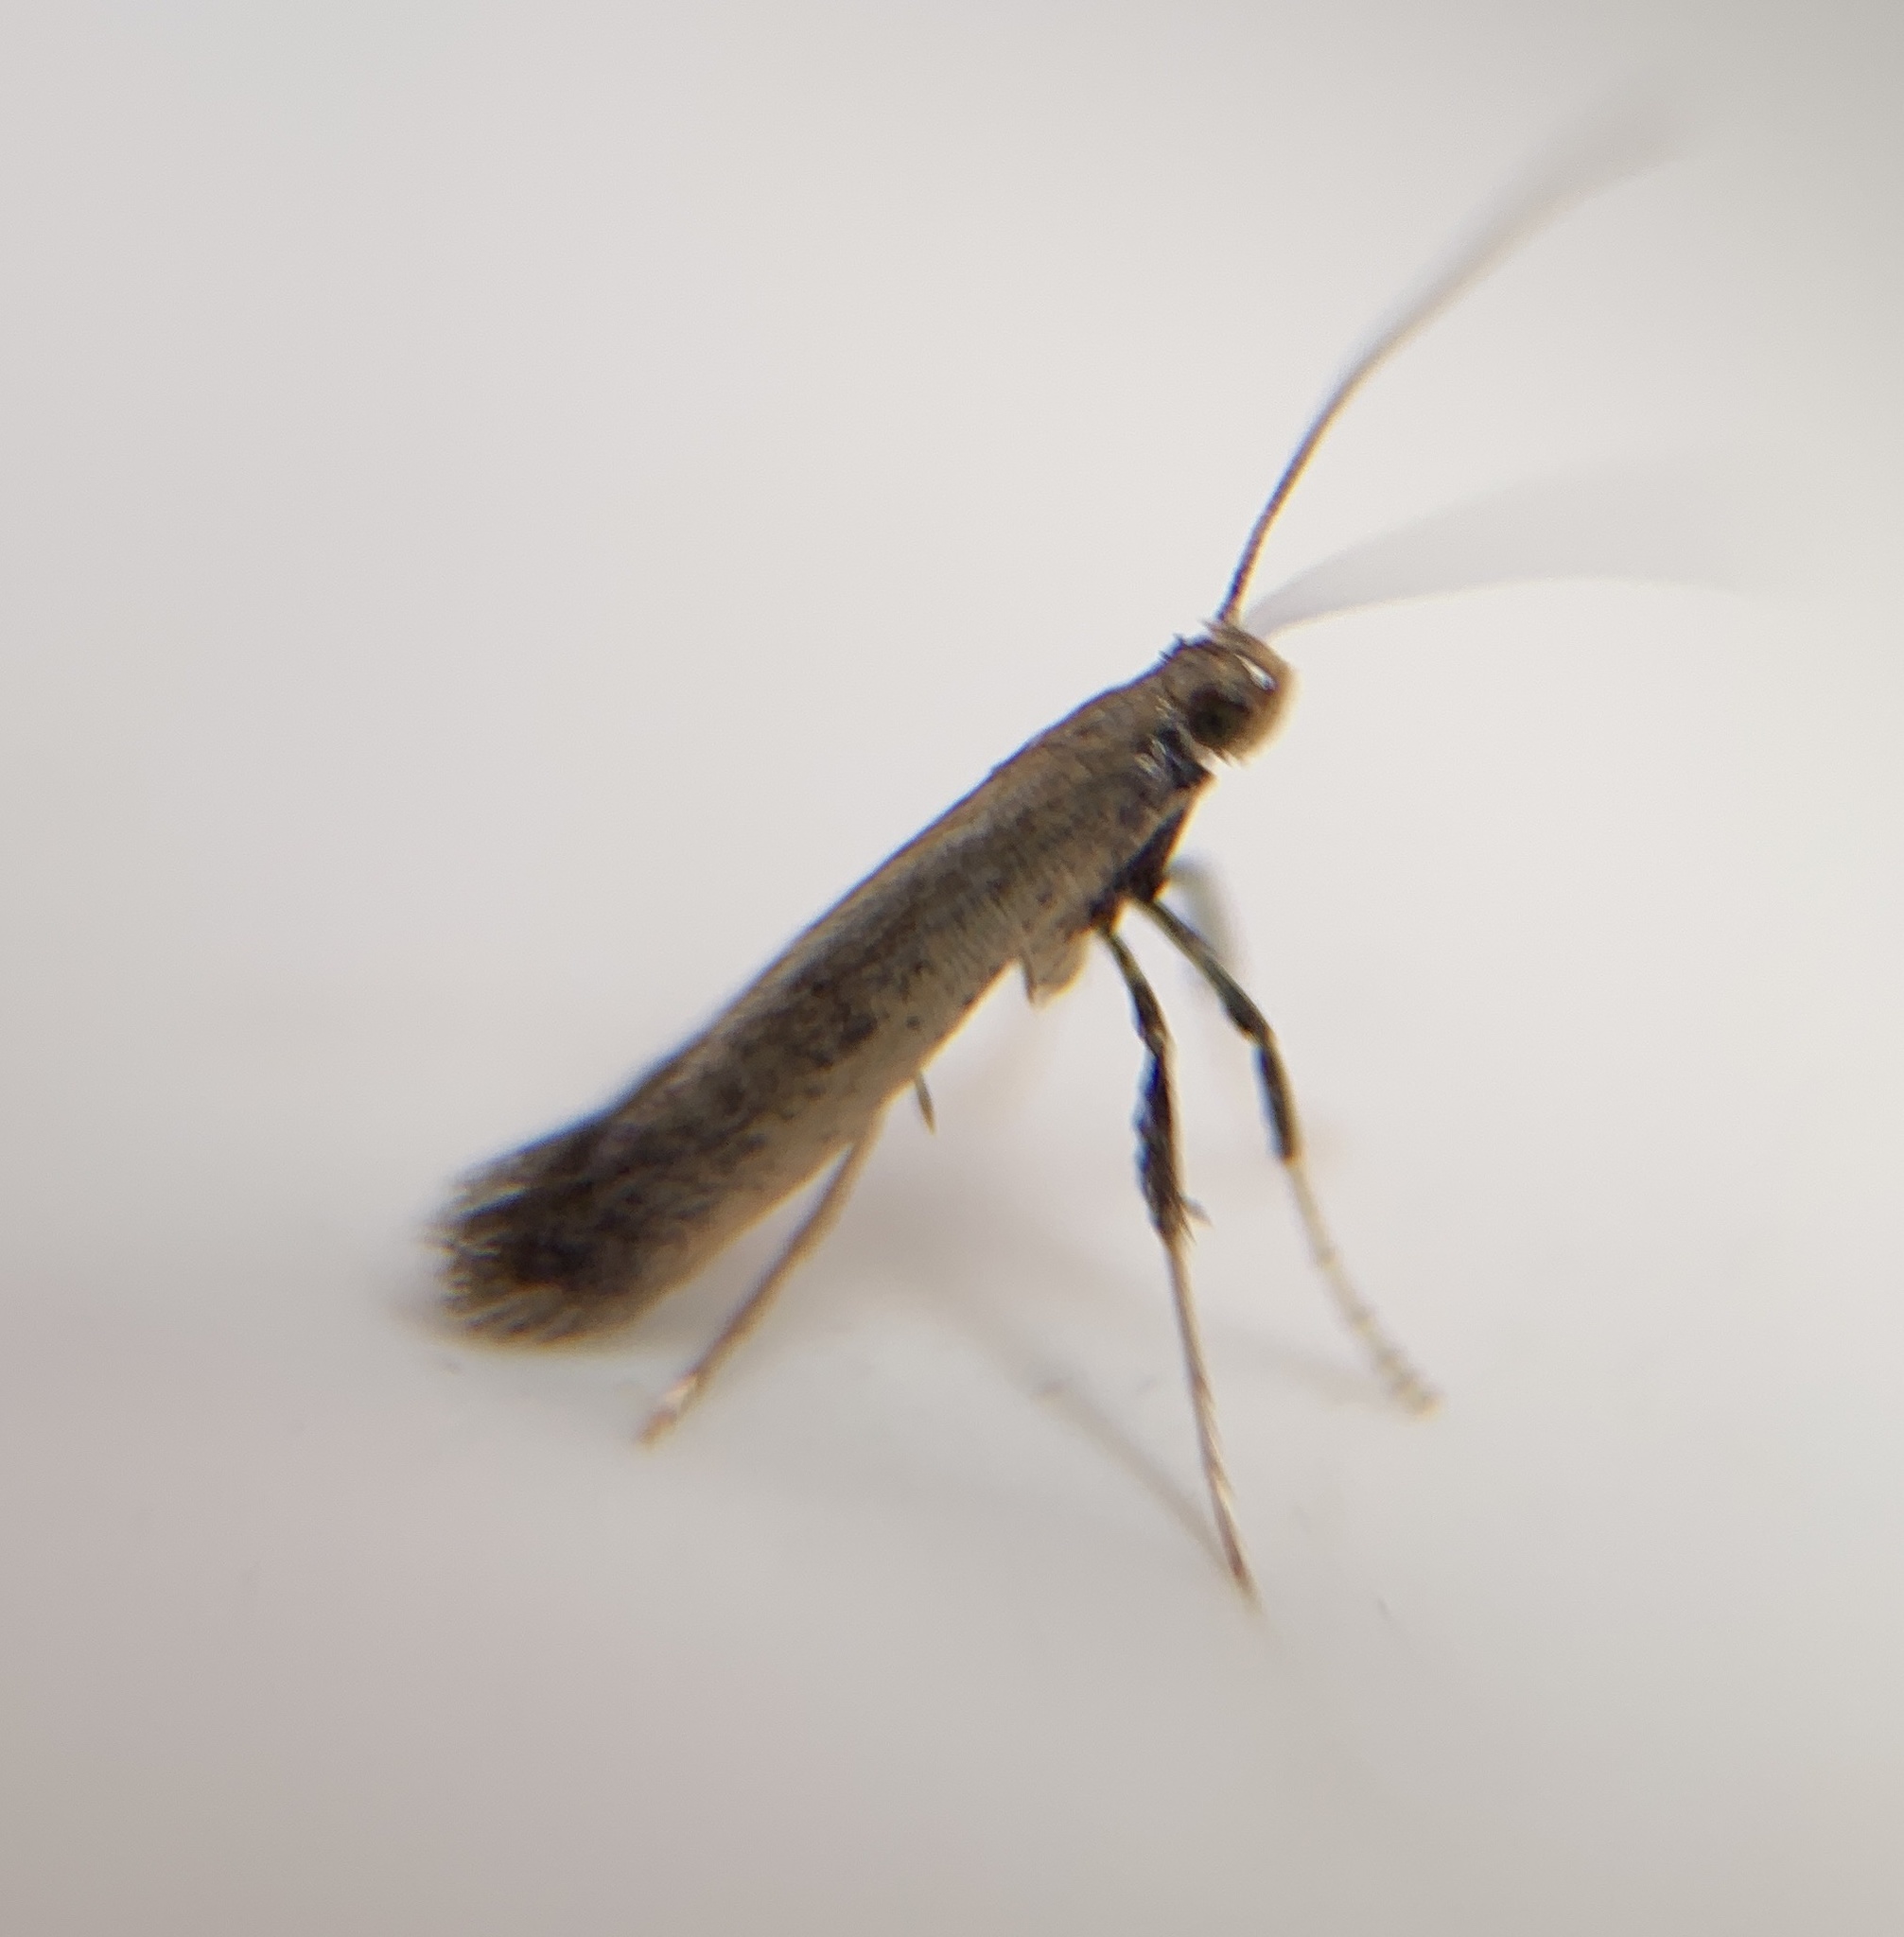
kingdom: Animalia
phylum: Arthropoda
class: Insecta
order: Lepidoptera
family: Gracillariidae
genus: Caloptilia
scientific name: Caloptilia hypericella
